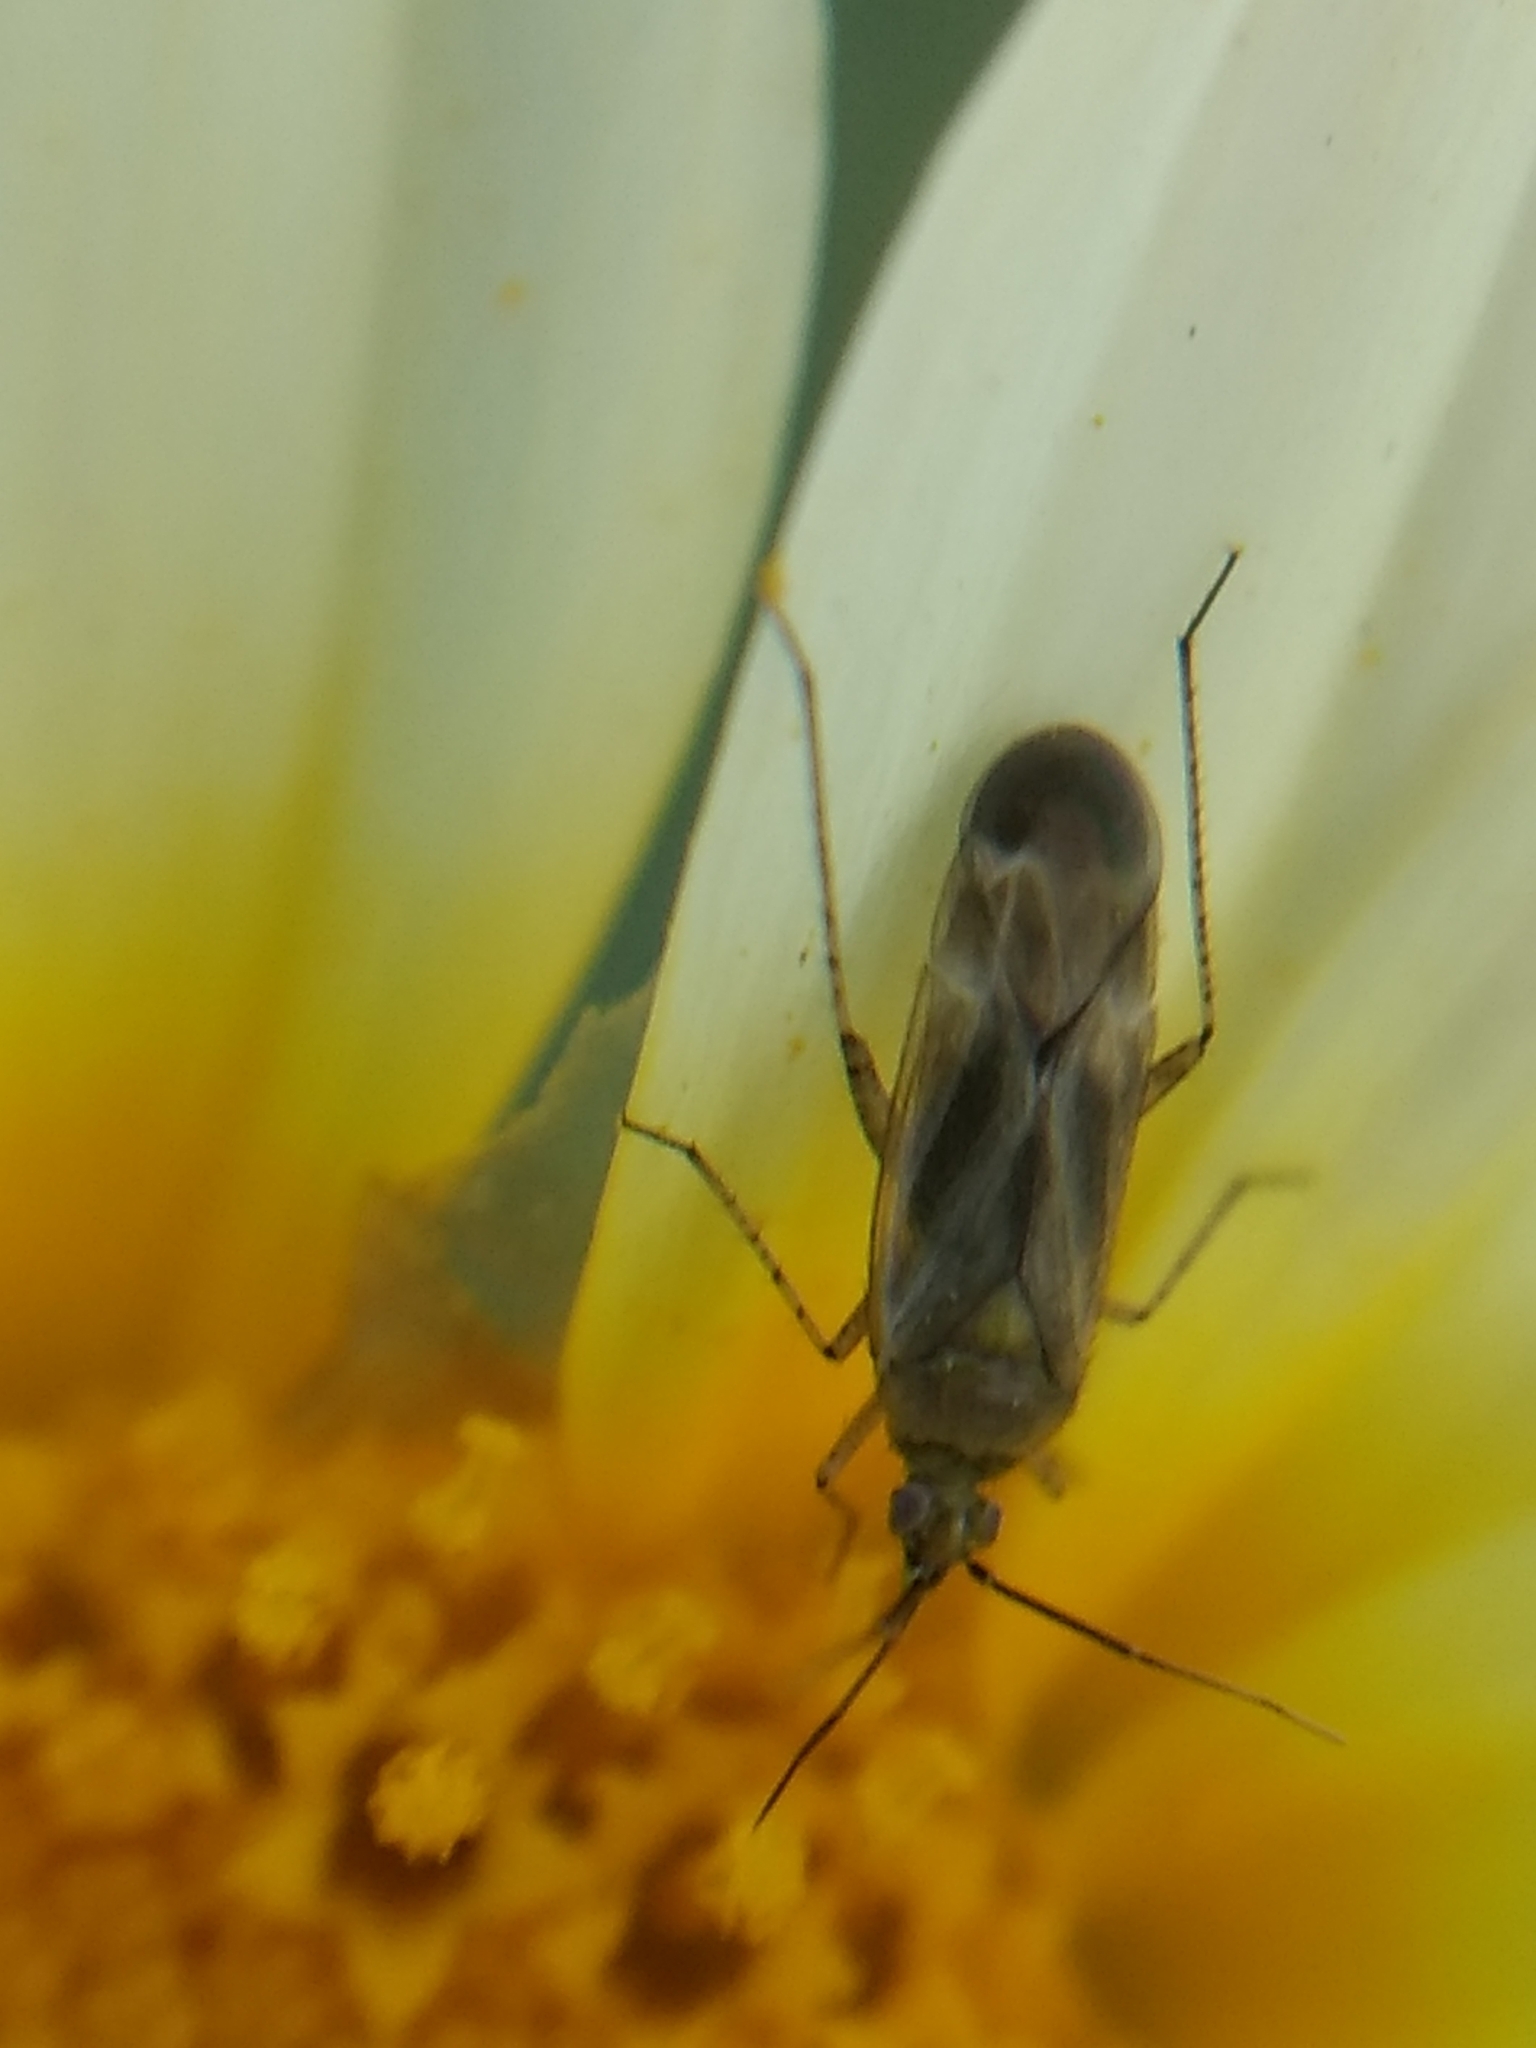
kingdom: Animalia
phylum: Arthropoda
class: Insecta
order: Hemiptera
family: Miridae
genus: Closterotomus
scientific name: Closterotomus norvegicus
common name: Plant bug
